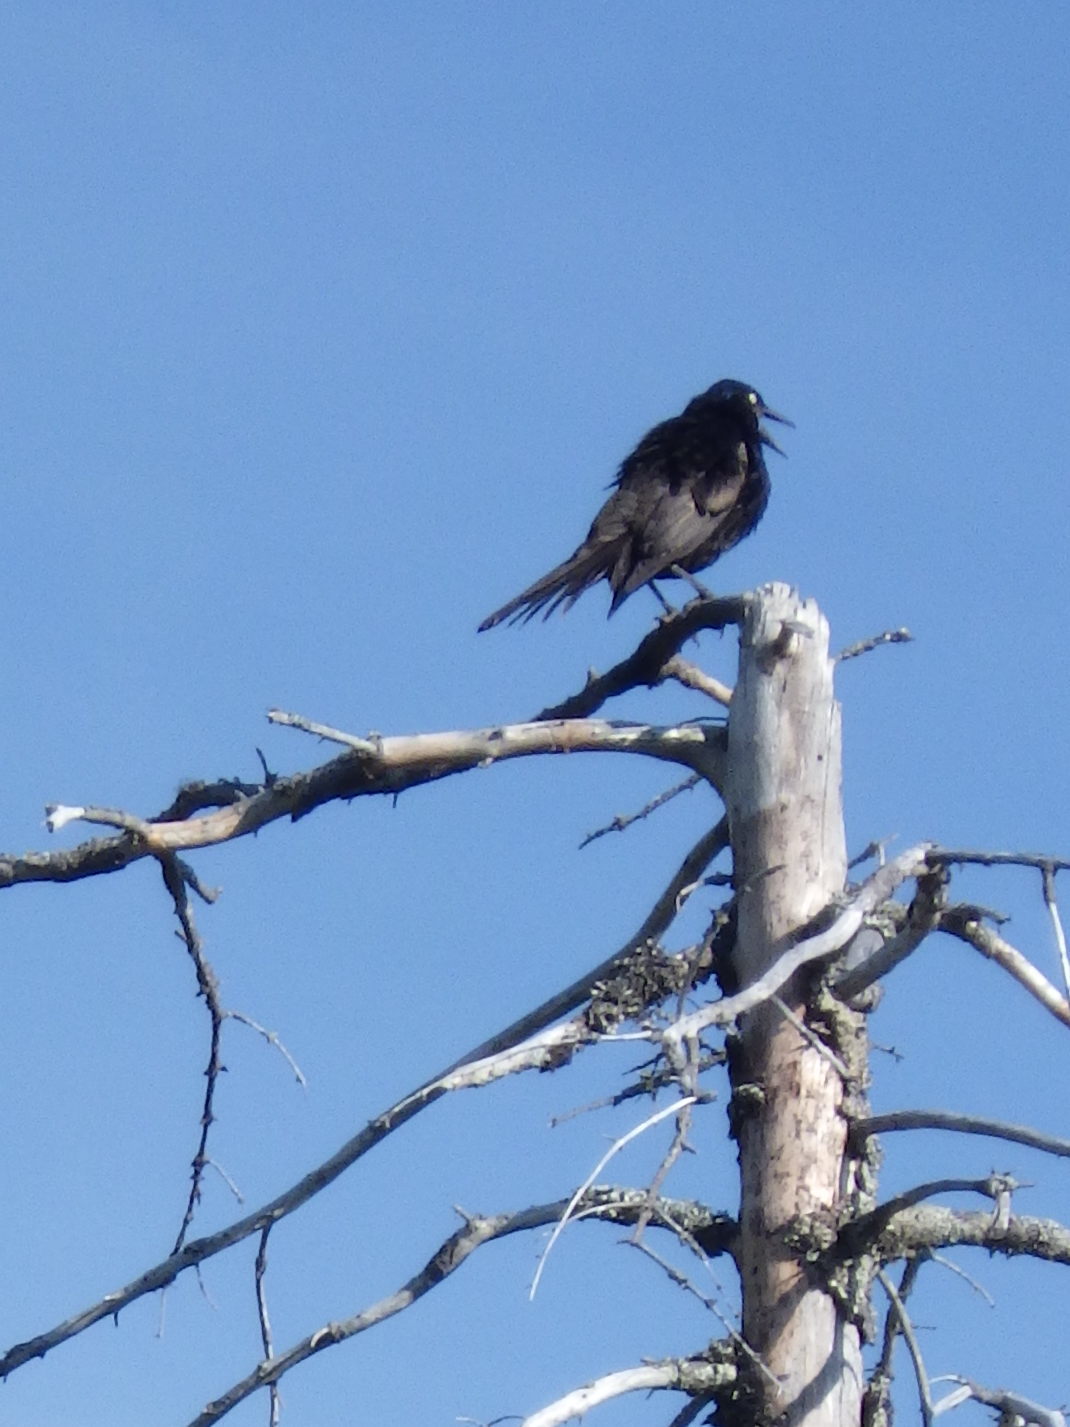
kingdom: Animalia
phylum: Chordata
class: Aves
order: Passeriformes
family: Icteridae
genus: Quiscalus
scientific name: Quiscalus quiscula
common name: Common grackle
